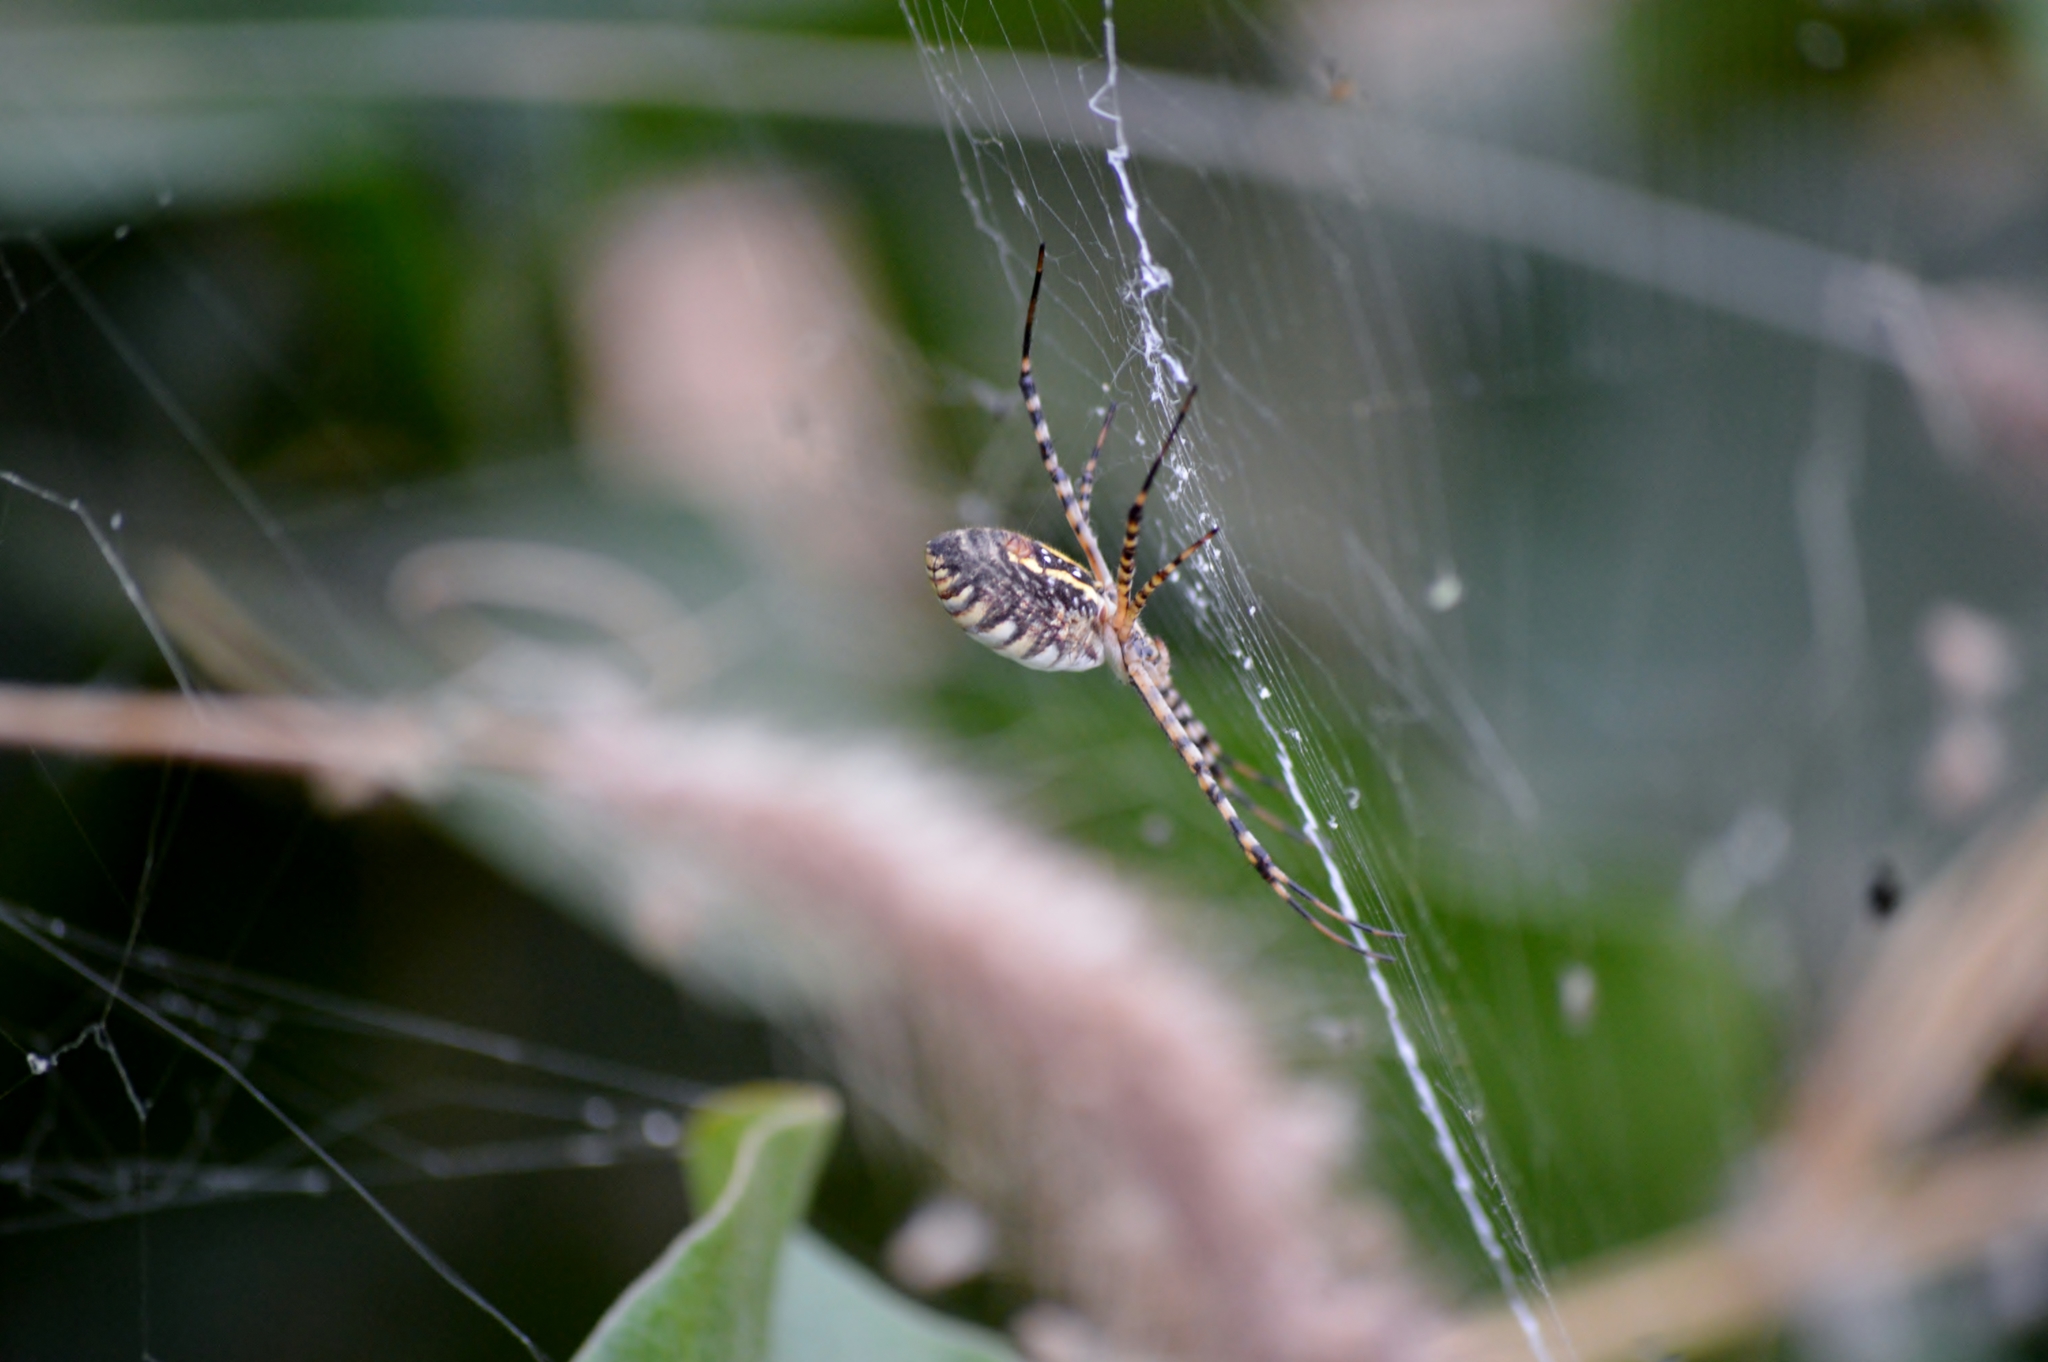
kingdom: Animalia
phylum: Arthropoda
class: Arachnida
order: Araneae
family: Araneidae
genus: Argiope
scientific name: Argiope trifasciata
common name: Banded garden spider
